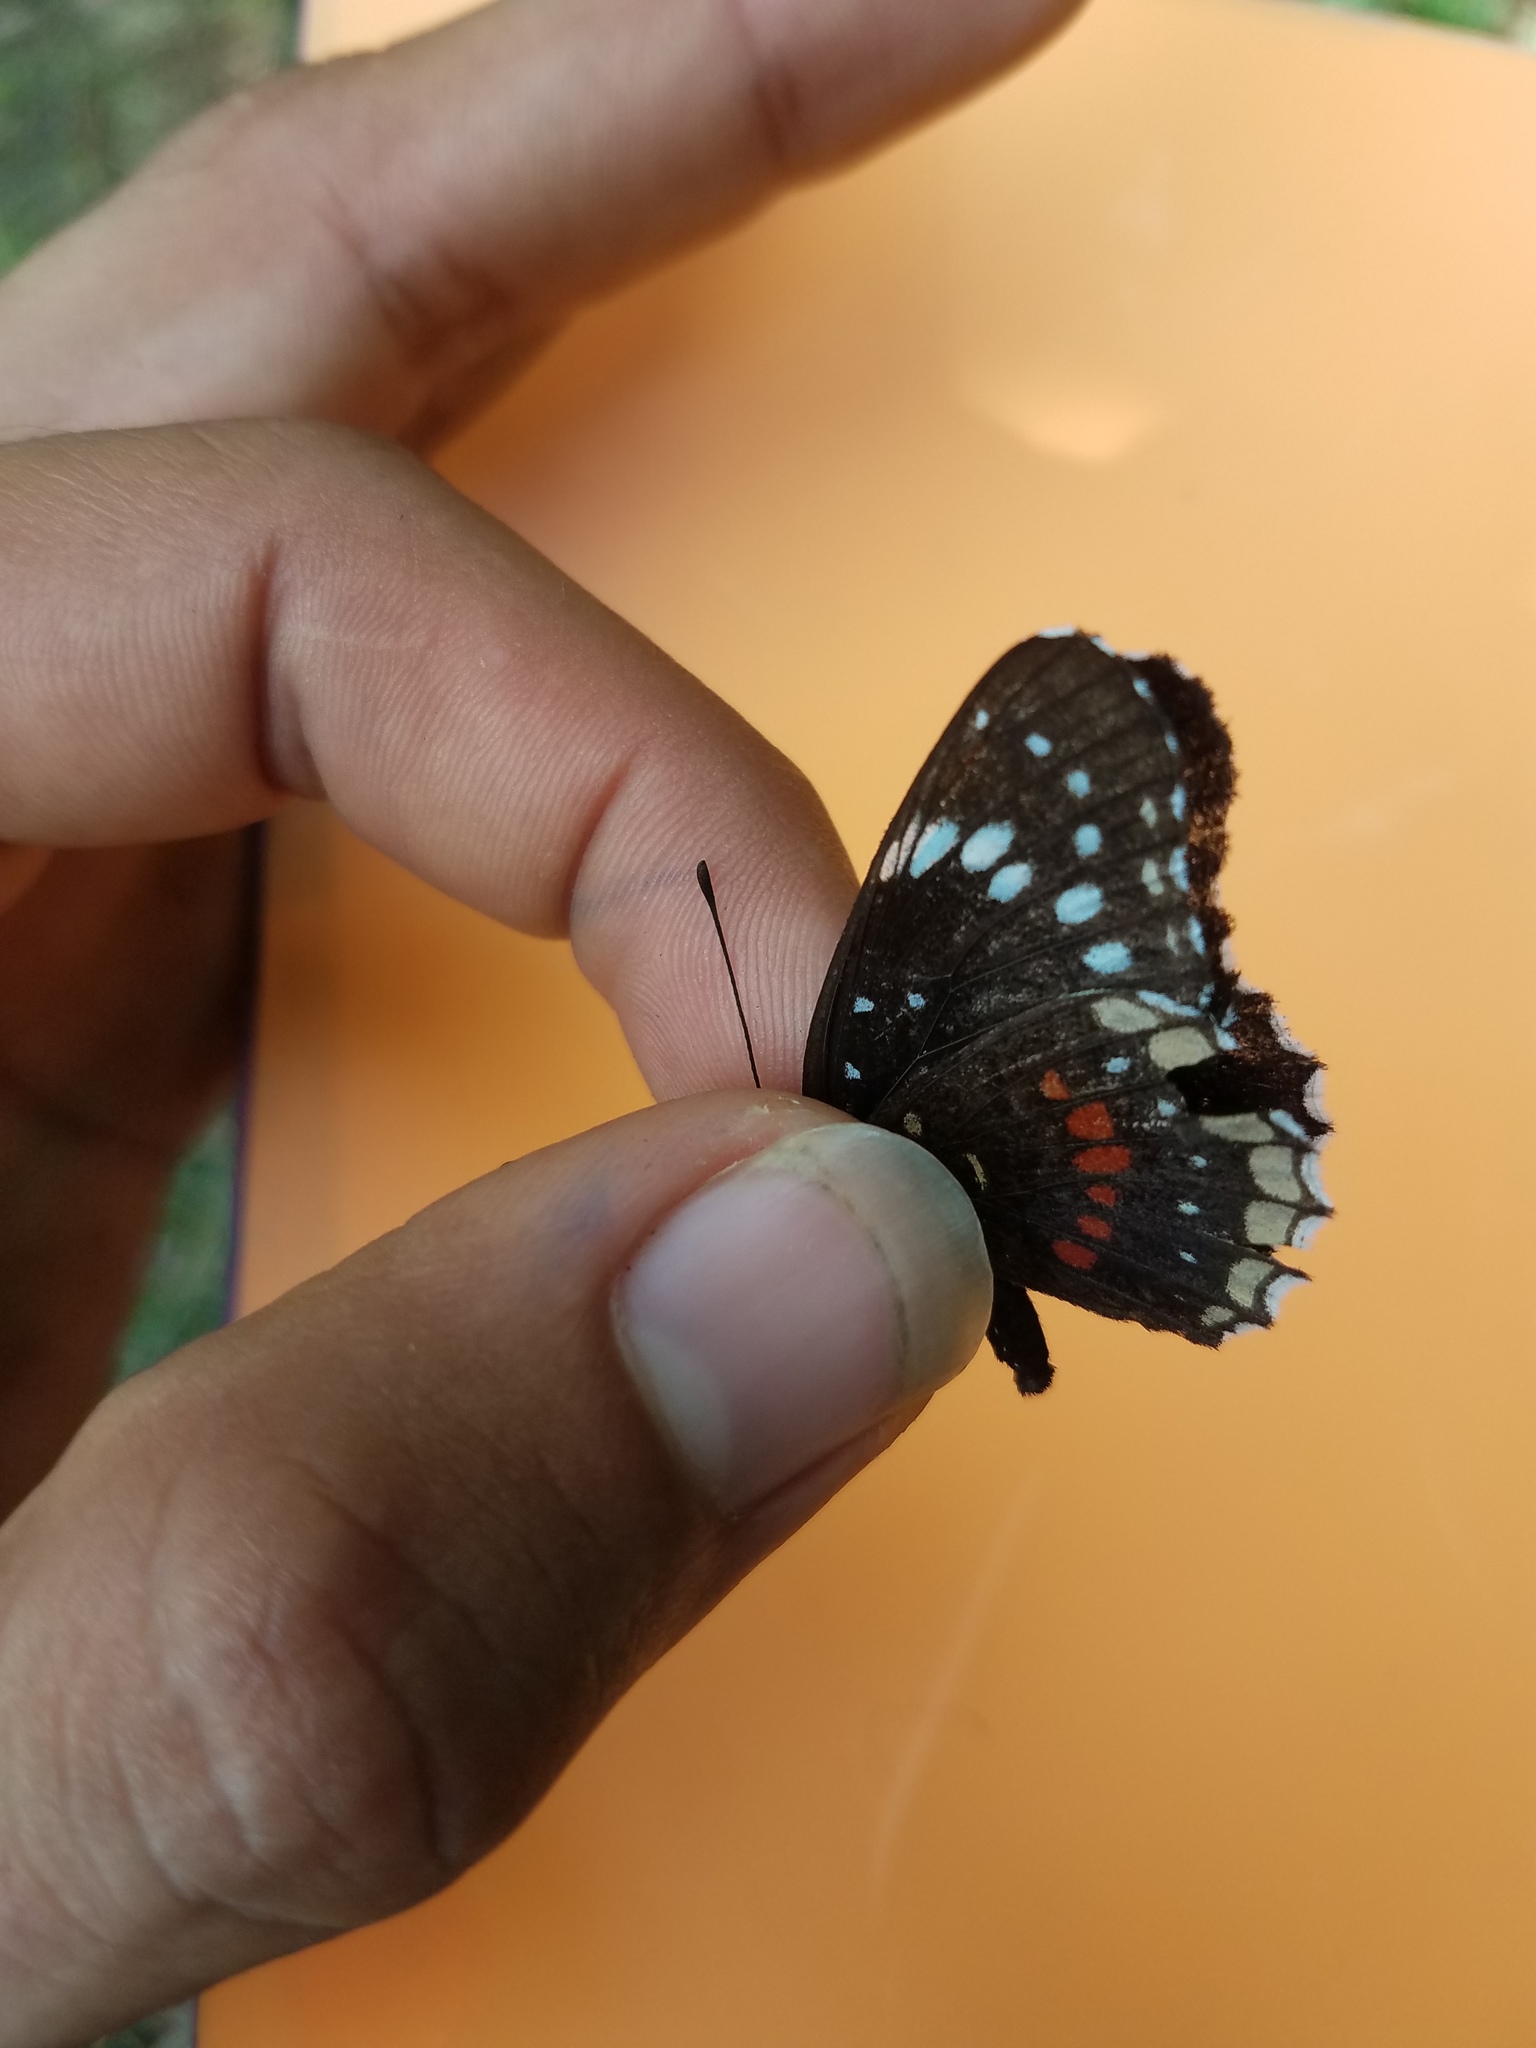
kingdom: Animalia
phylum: Arthropoda
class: Insecta
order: Lepidoptera
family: Nymphalidae
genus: Chlosyne
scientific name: Chlosyne hippodrome
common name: Simple patch
